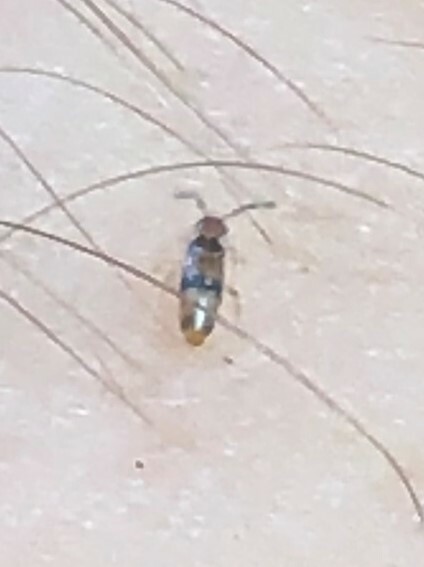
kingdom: Animalia
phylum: Arthropoda
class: Collembola
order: Entomobryomorpha
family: Entomobryidae
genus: Willowsia
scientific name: Willowsia jacobsoni
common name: Springtail
